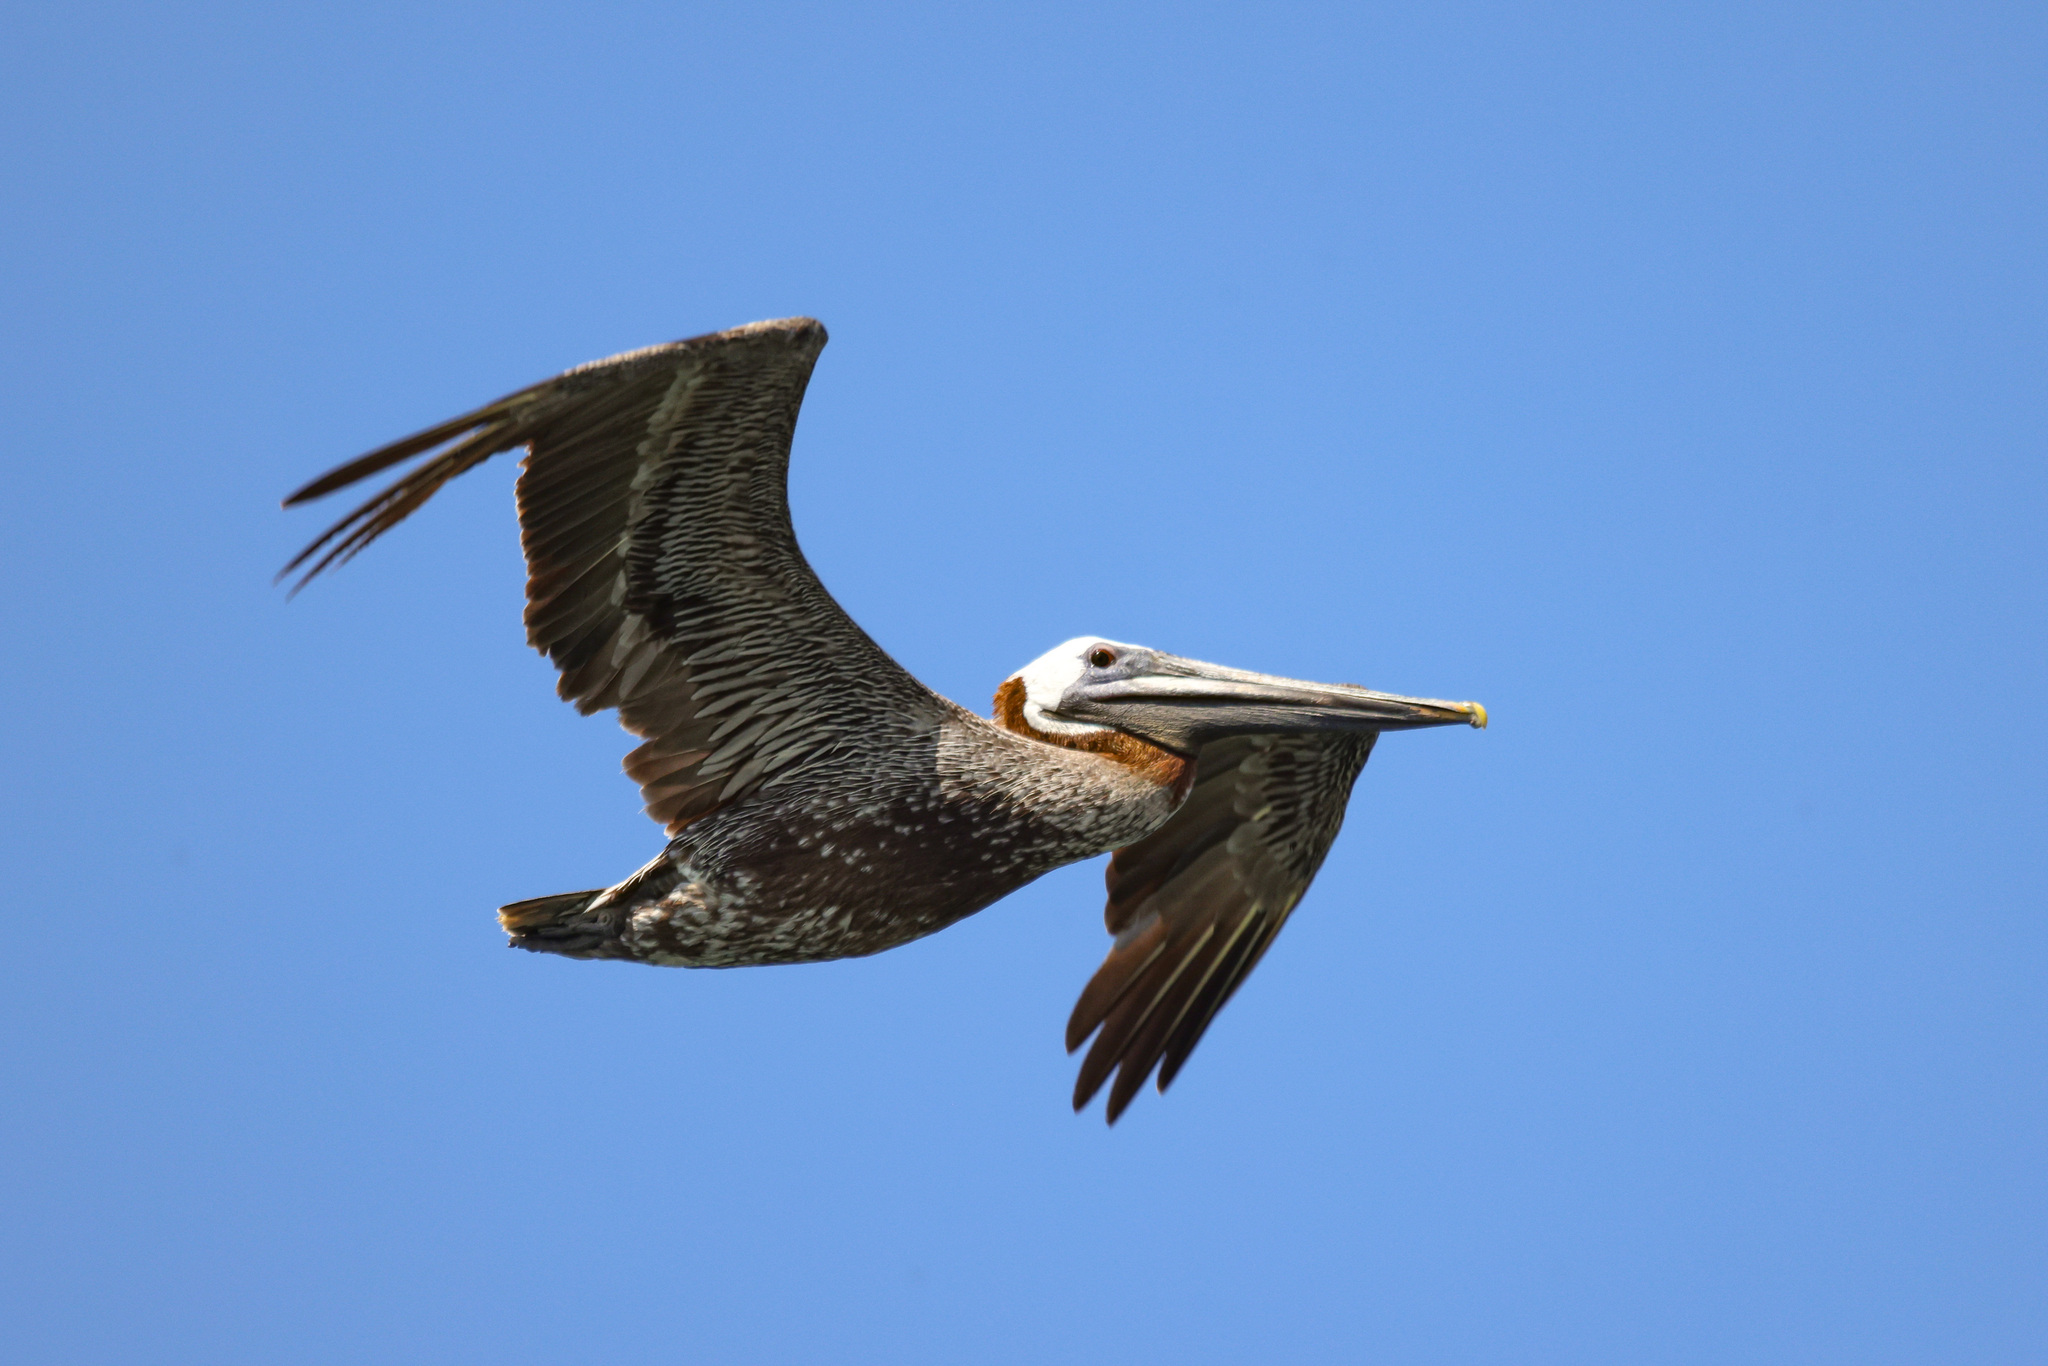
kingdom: Animalia
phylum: Chordata
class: Aves
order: Pelecaniformes
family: Pelecanidae
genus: Pelecanus
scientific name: Pelecanus occidentalis
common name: Brown pelican
